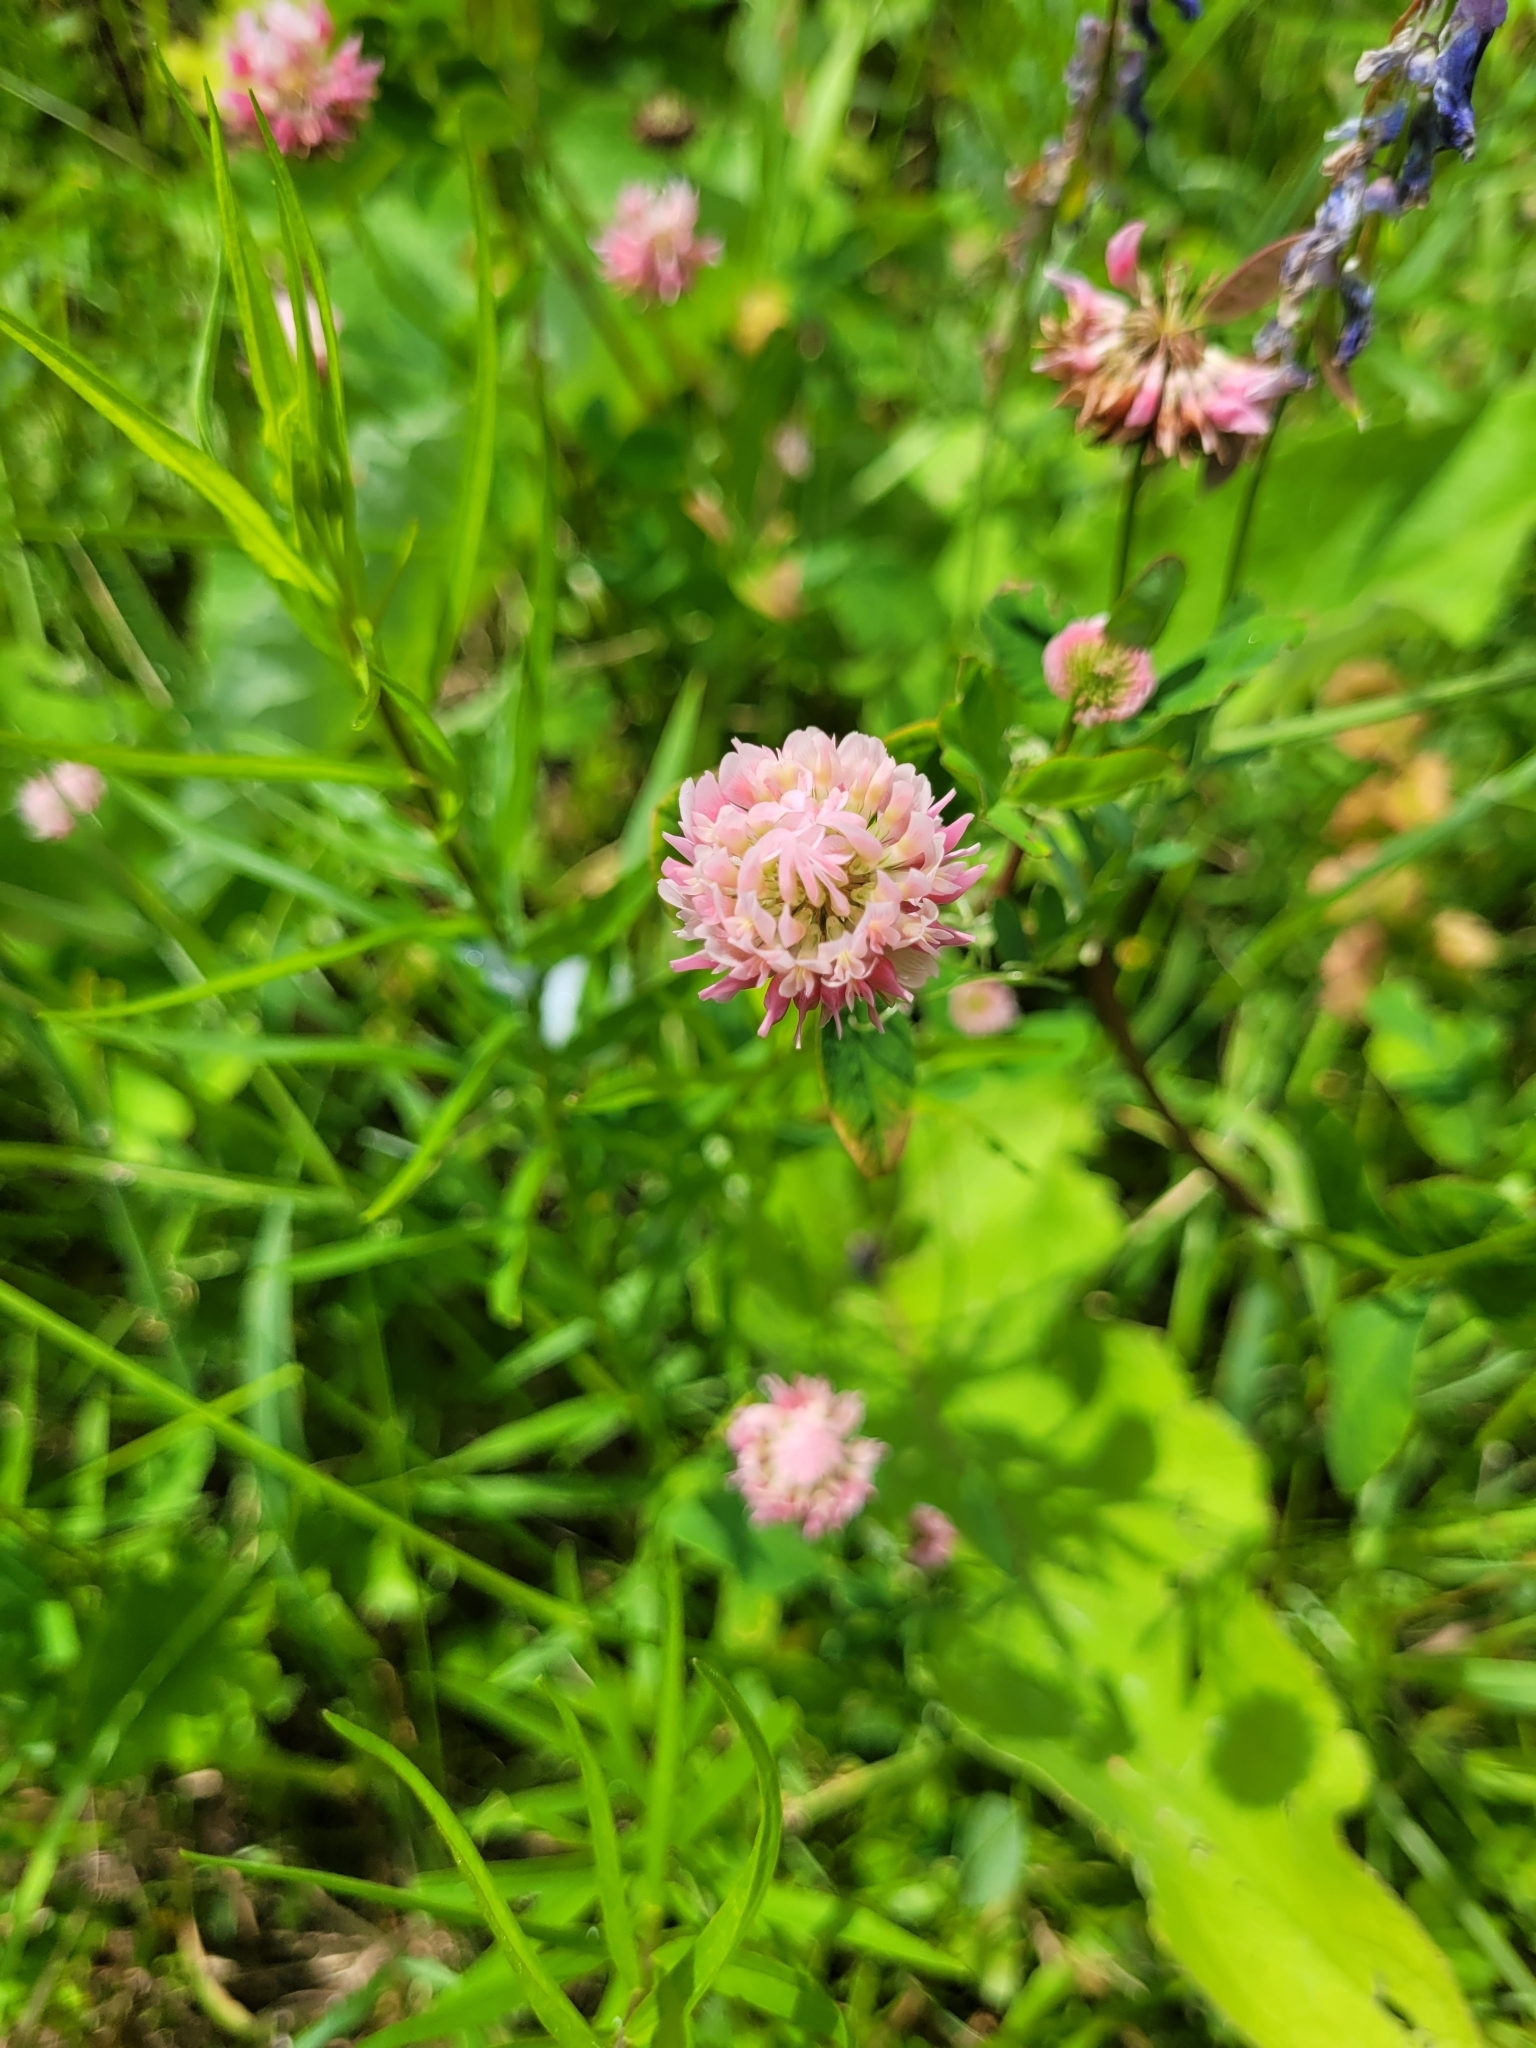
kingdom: Plantae
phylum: Tracheophyta
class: Magnoliopsida
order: Fabales
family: Fabaceae
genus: Trifolium
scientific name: Trifolium hybridum
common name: Alsike clover
